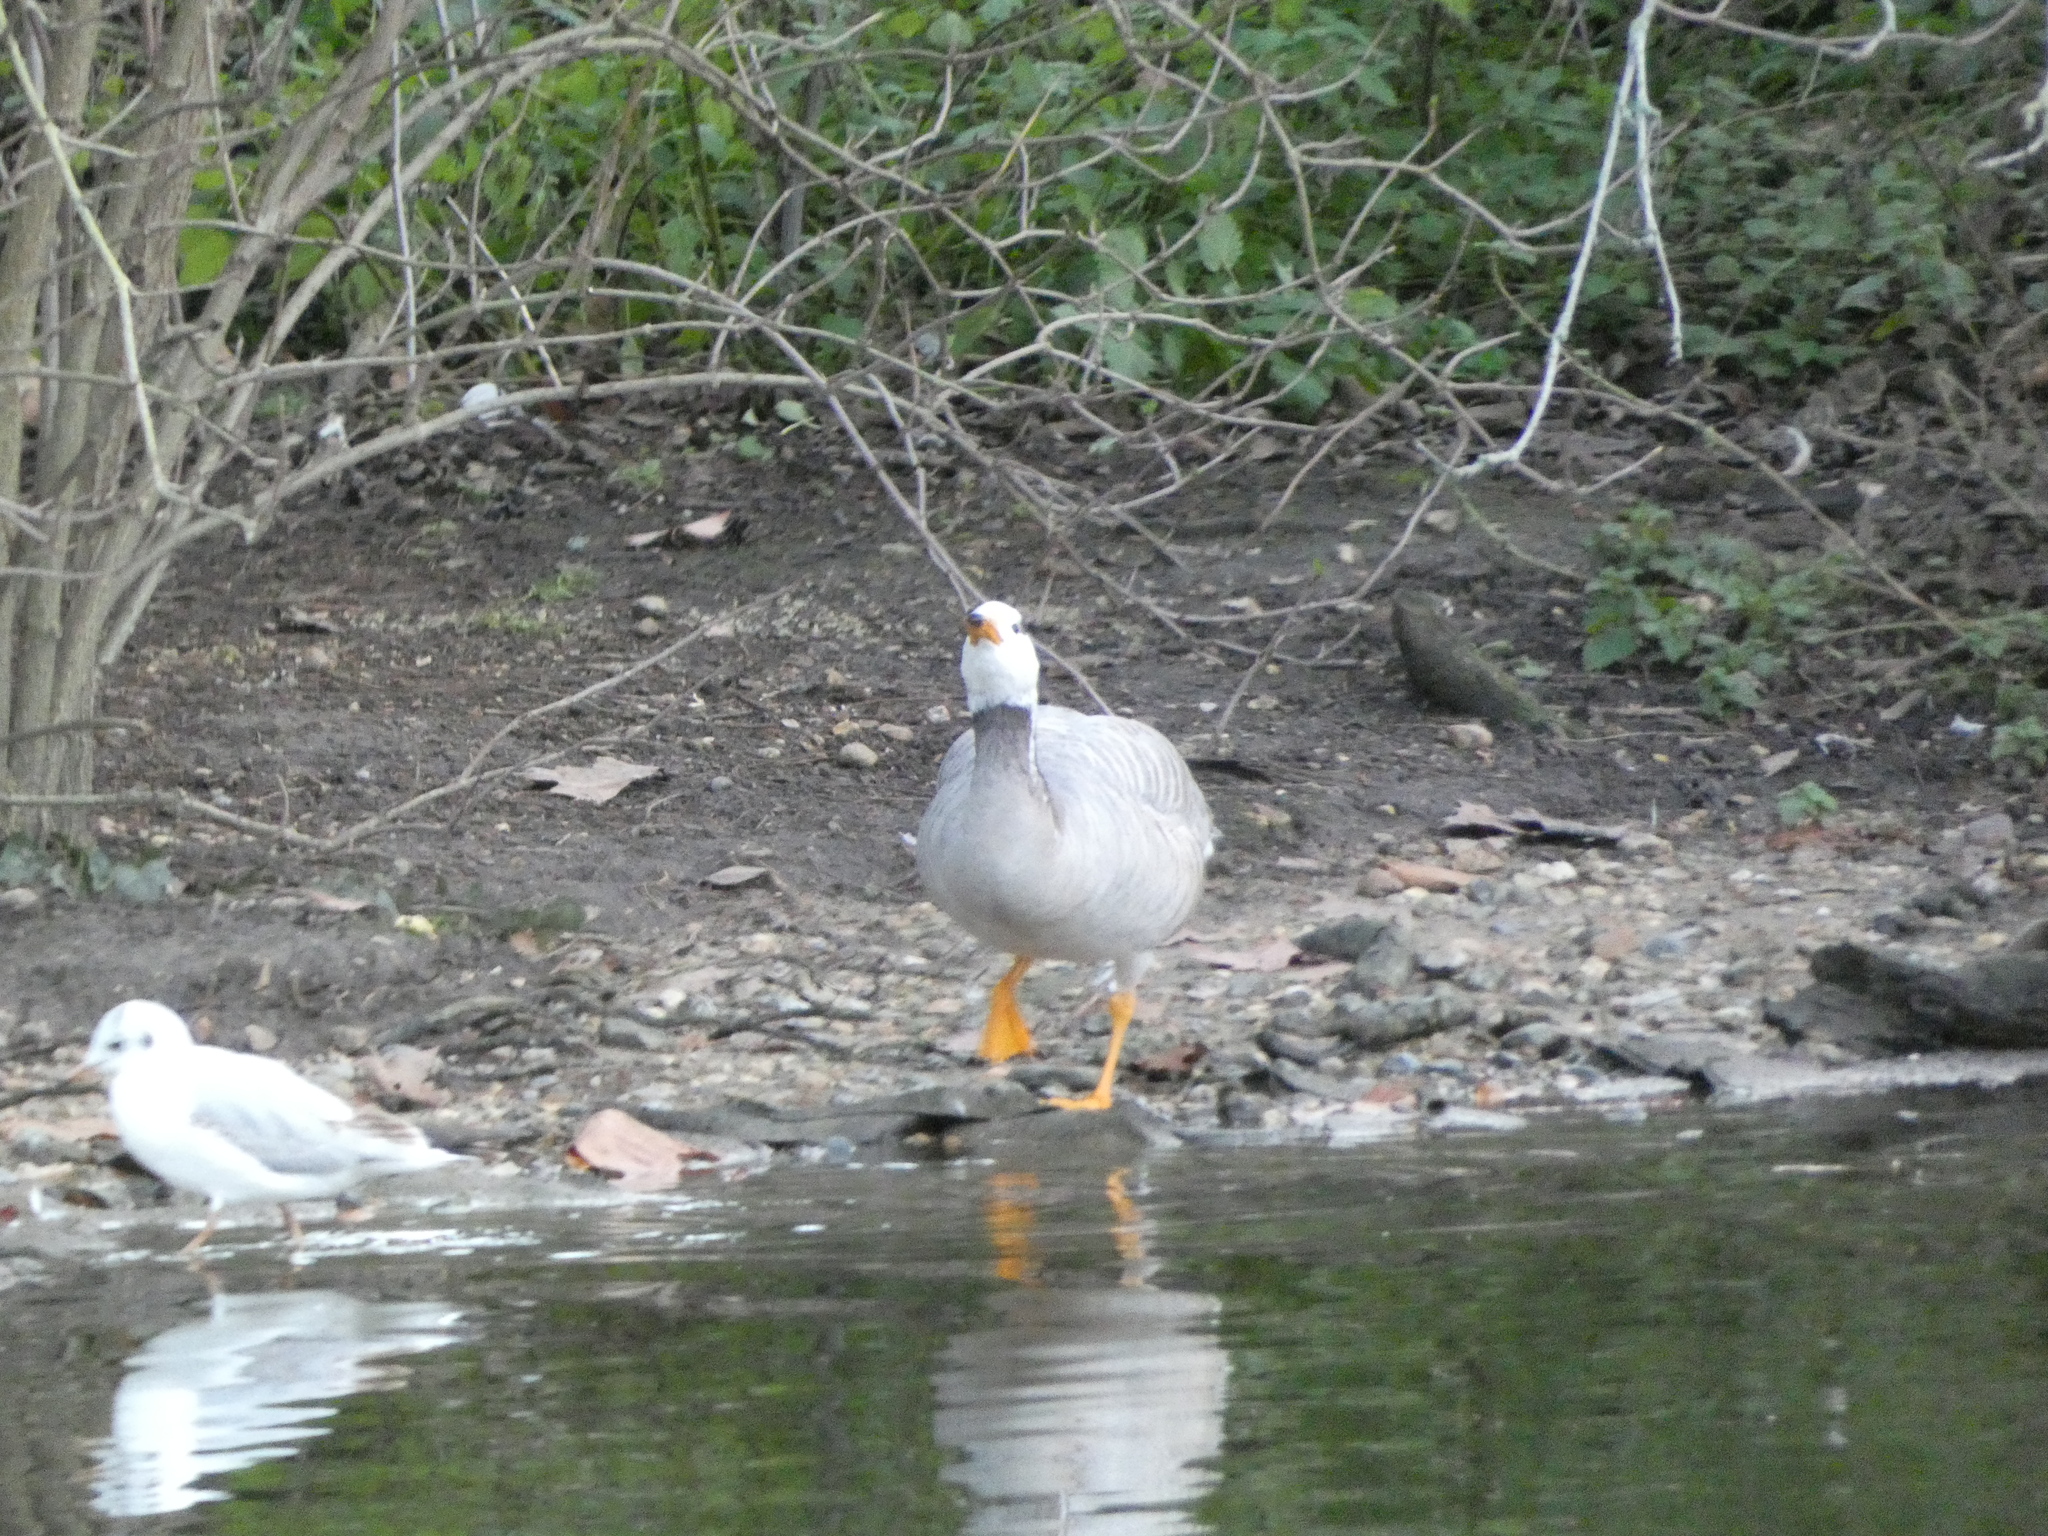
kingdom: Animalia
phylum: Chordata
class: Aves
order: Anseriformes
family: Anatidae
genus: Anser
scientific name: Anser indicus
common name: Bar-headed goose
